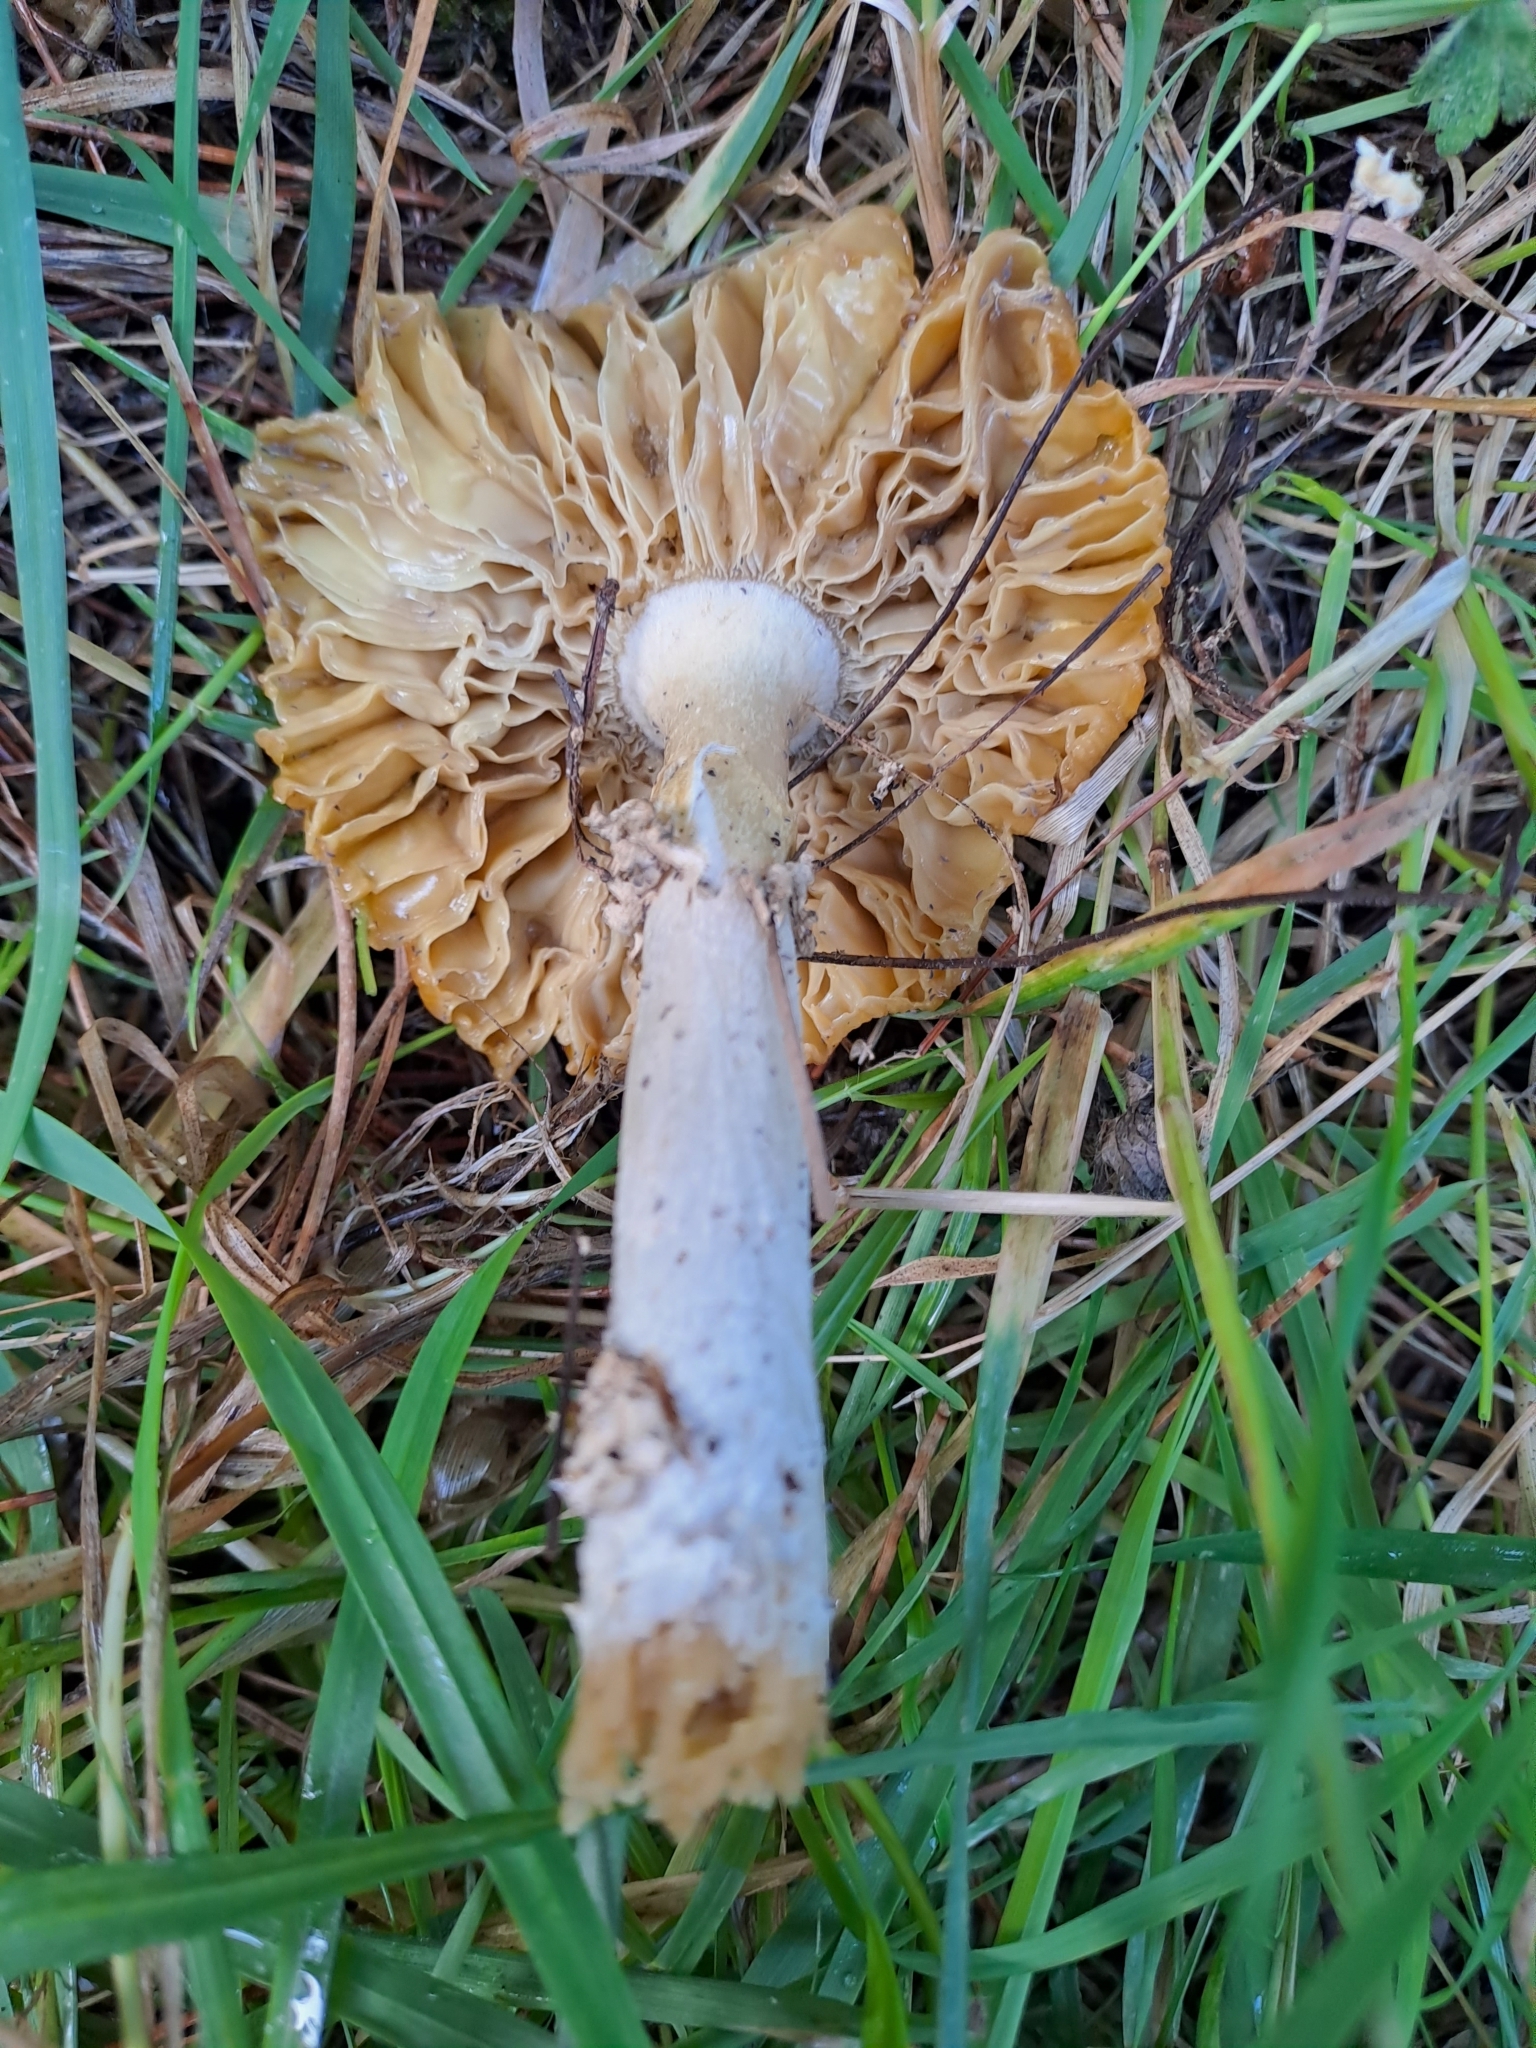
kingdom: Fungi
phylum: Basidiomycota
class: Agaricomycetes
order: Agaricales
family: Amanitaceae
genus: Amanita
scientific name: Amanita muscaria
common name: Fly agaric
